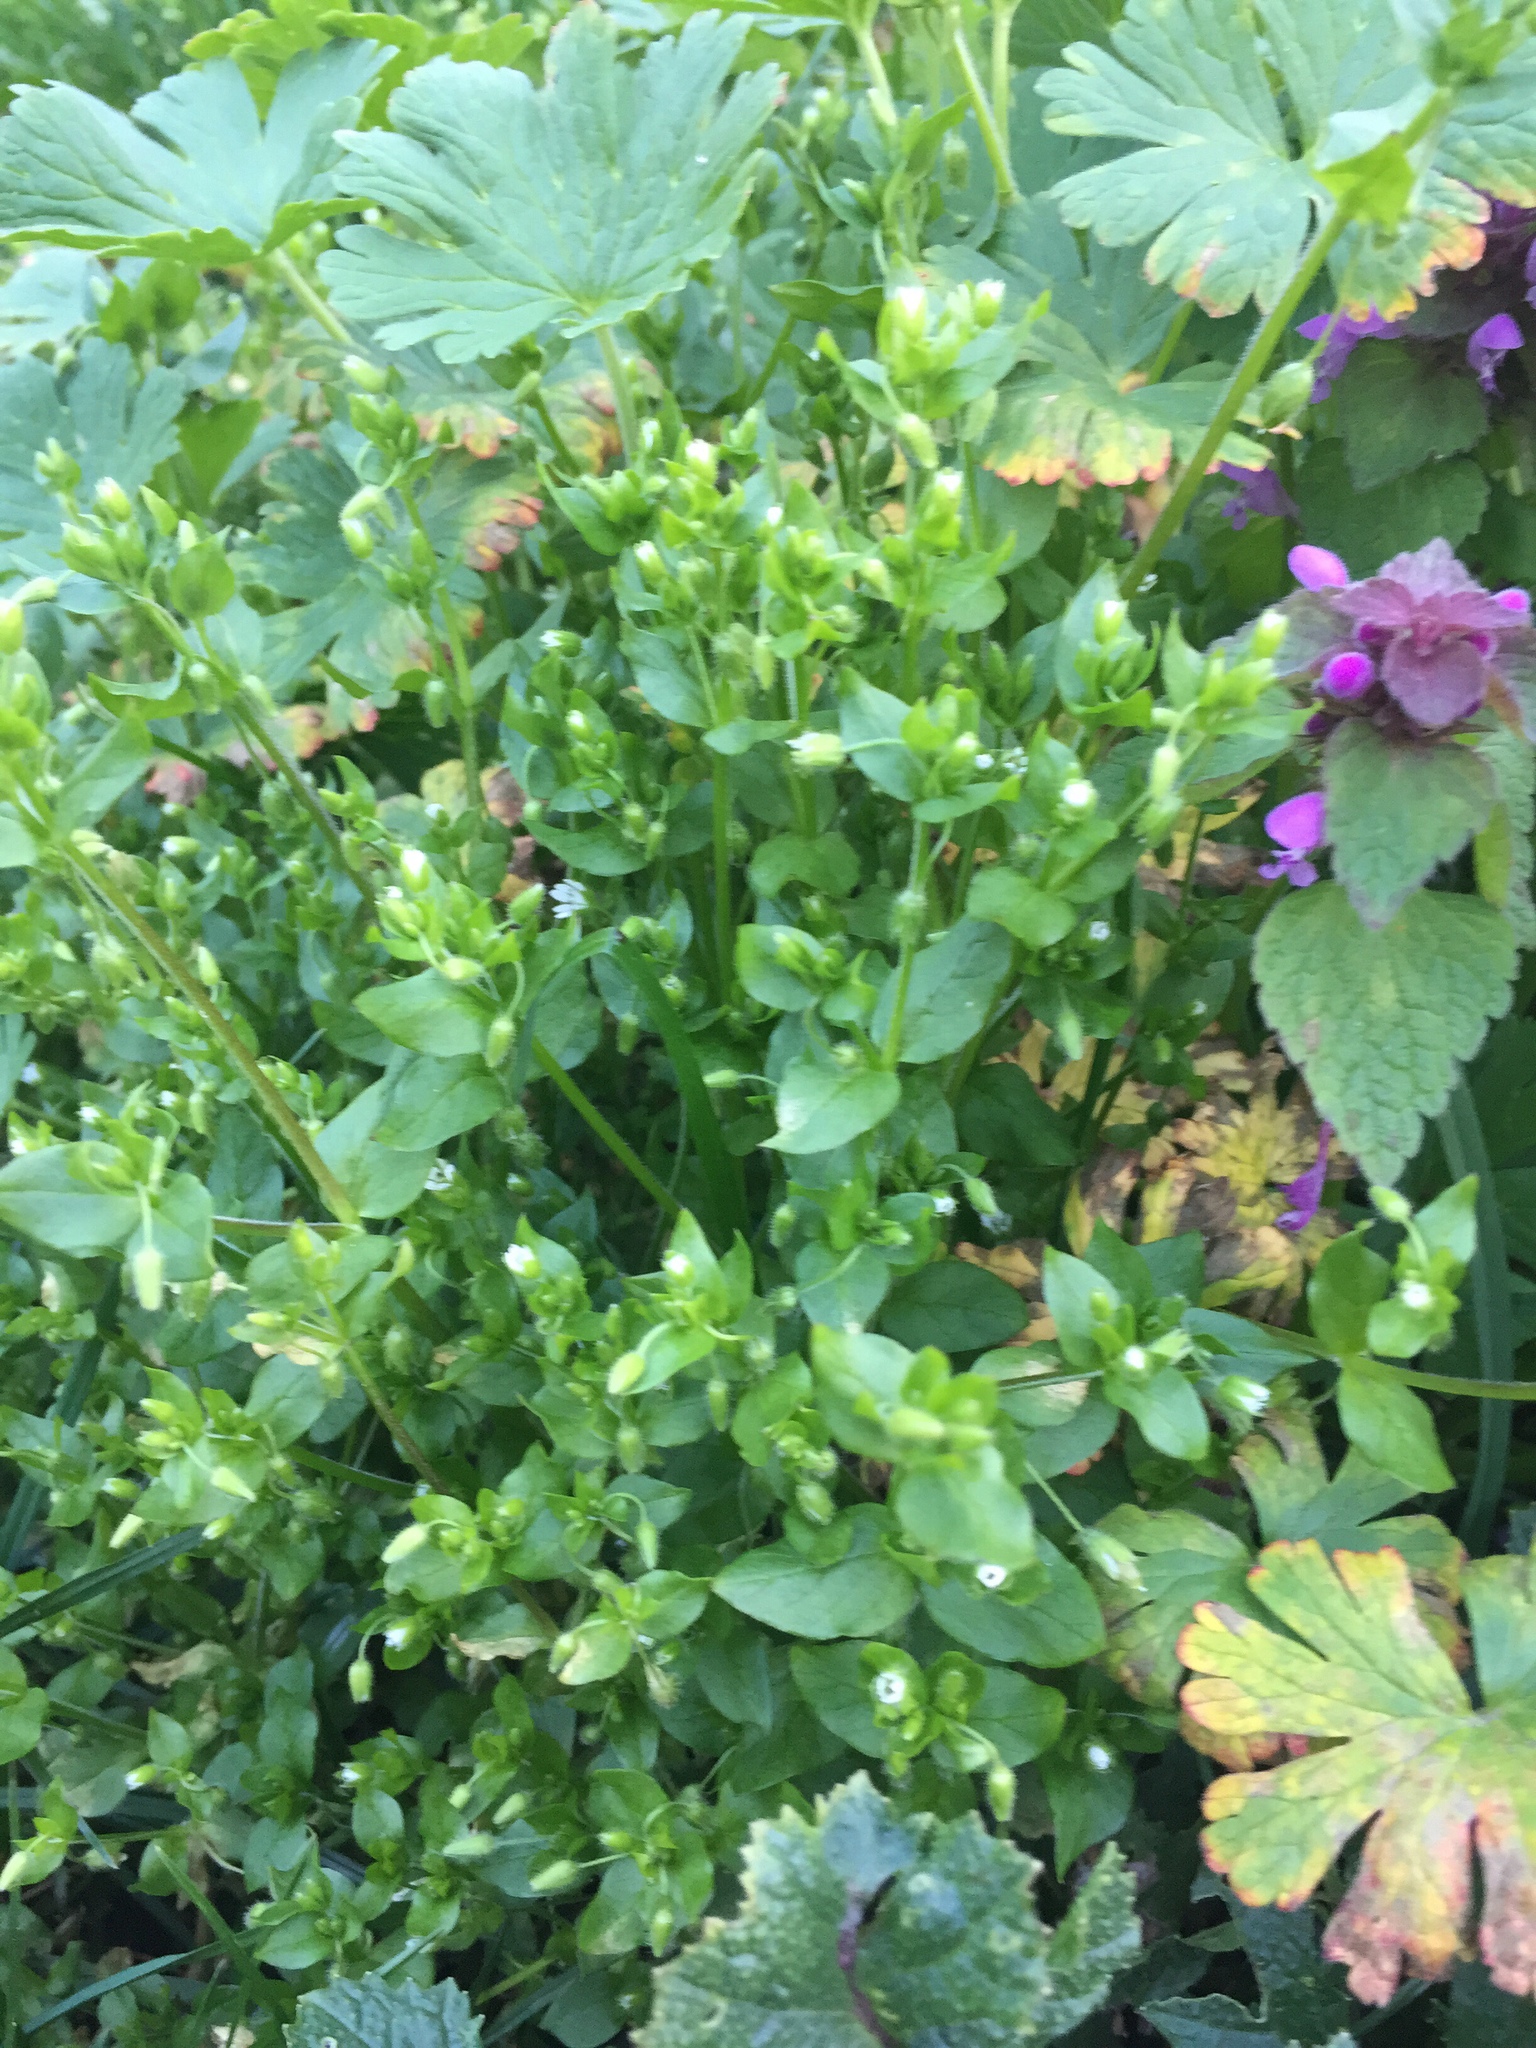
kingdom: Plantae
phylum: Tracheophyta
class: Magnoliopsida
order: Caryophyllales
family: Caryophyllaceae
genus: Stellaria
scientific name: Stellaria media
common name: Common chickweed
